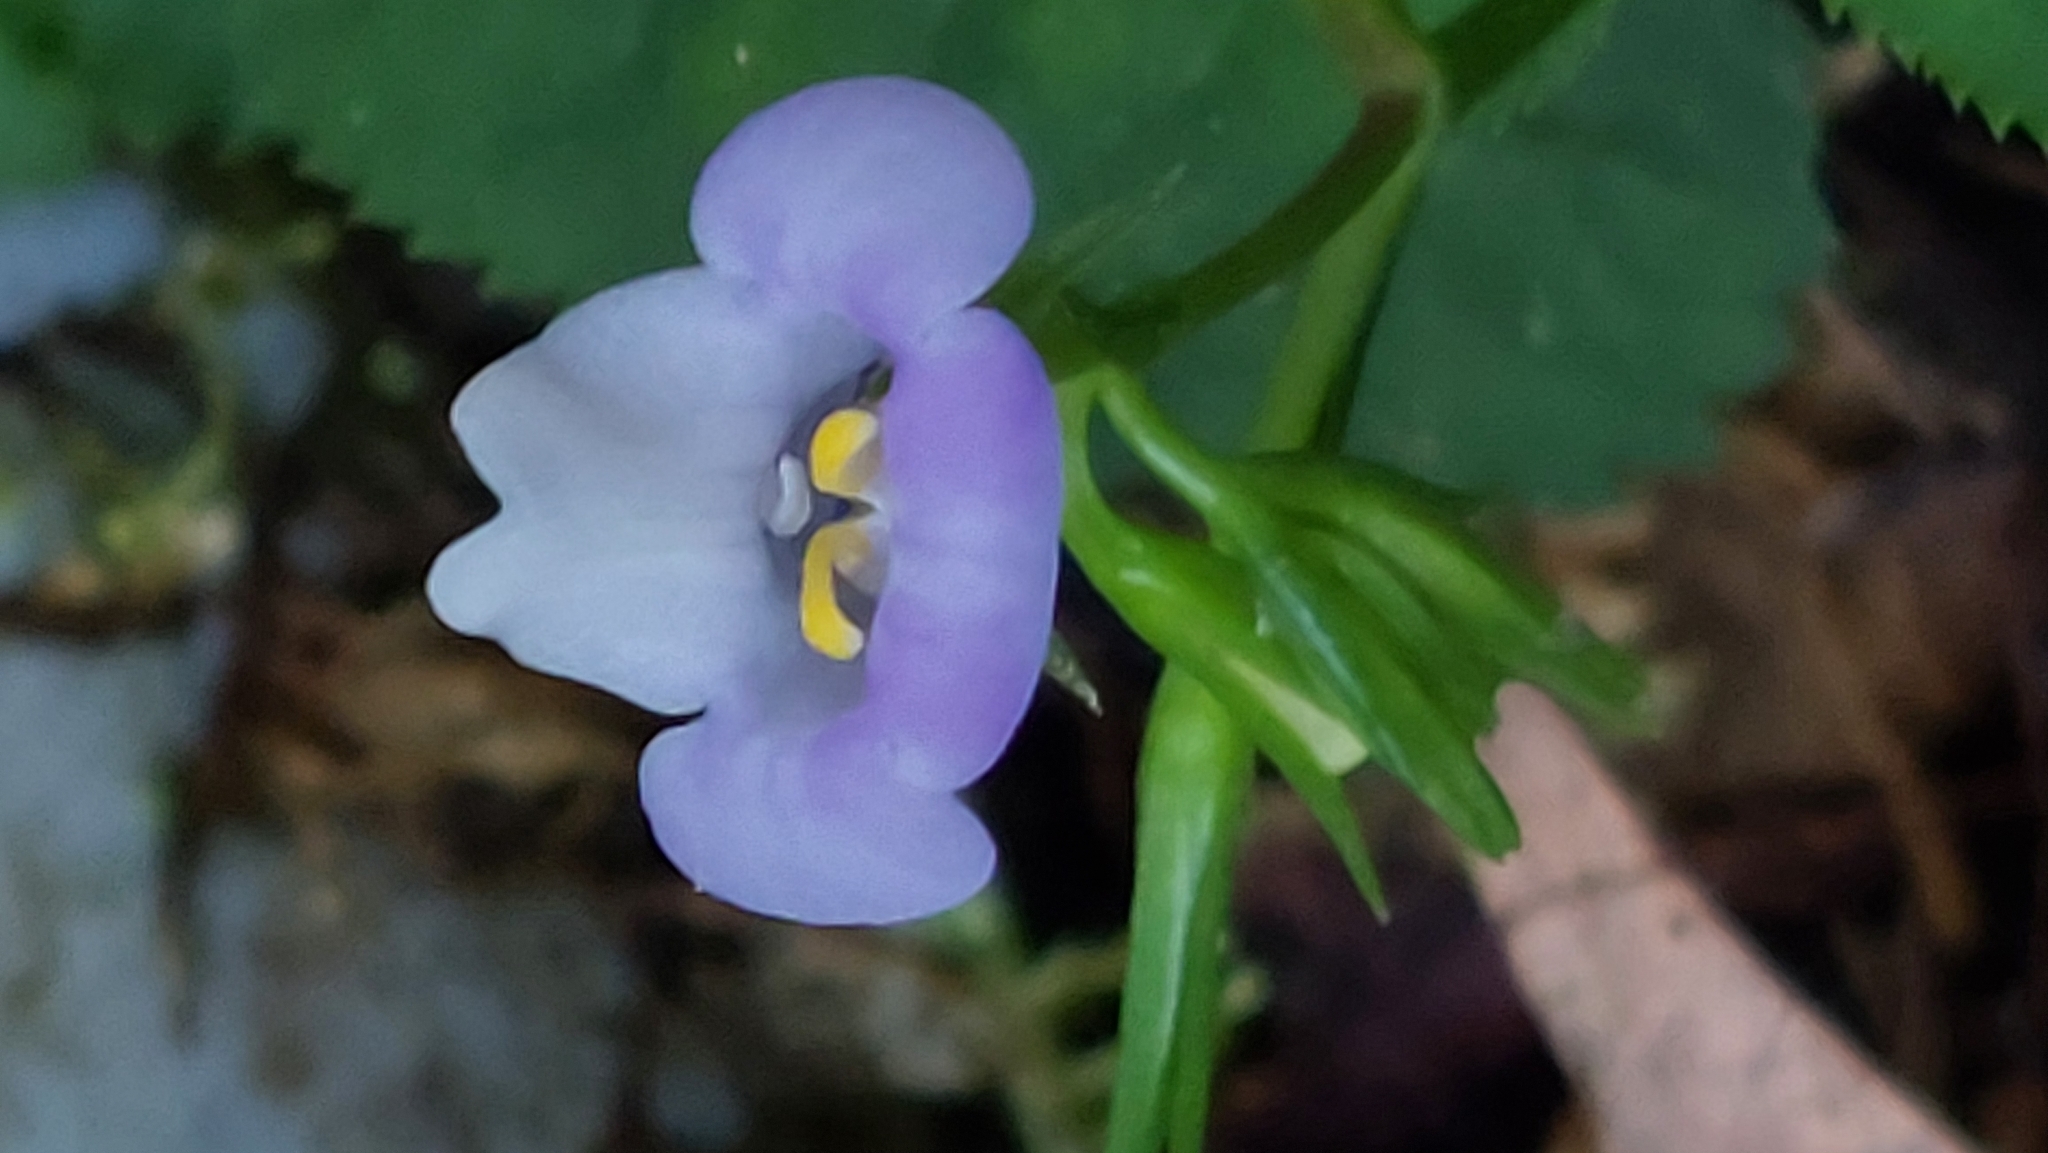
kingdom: Plantae
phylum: Tracheophyta
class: Magnoliopsida
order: Lamiales
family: Linderniaceae
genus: Bonnaya
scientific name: Bonnaya ruelloides
